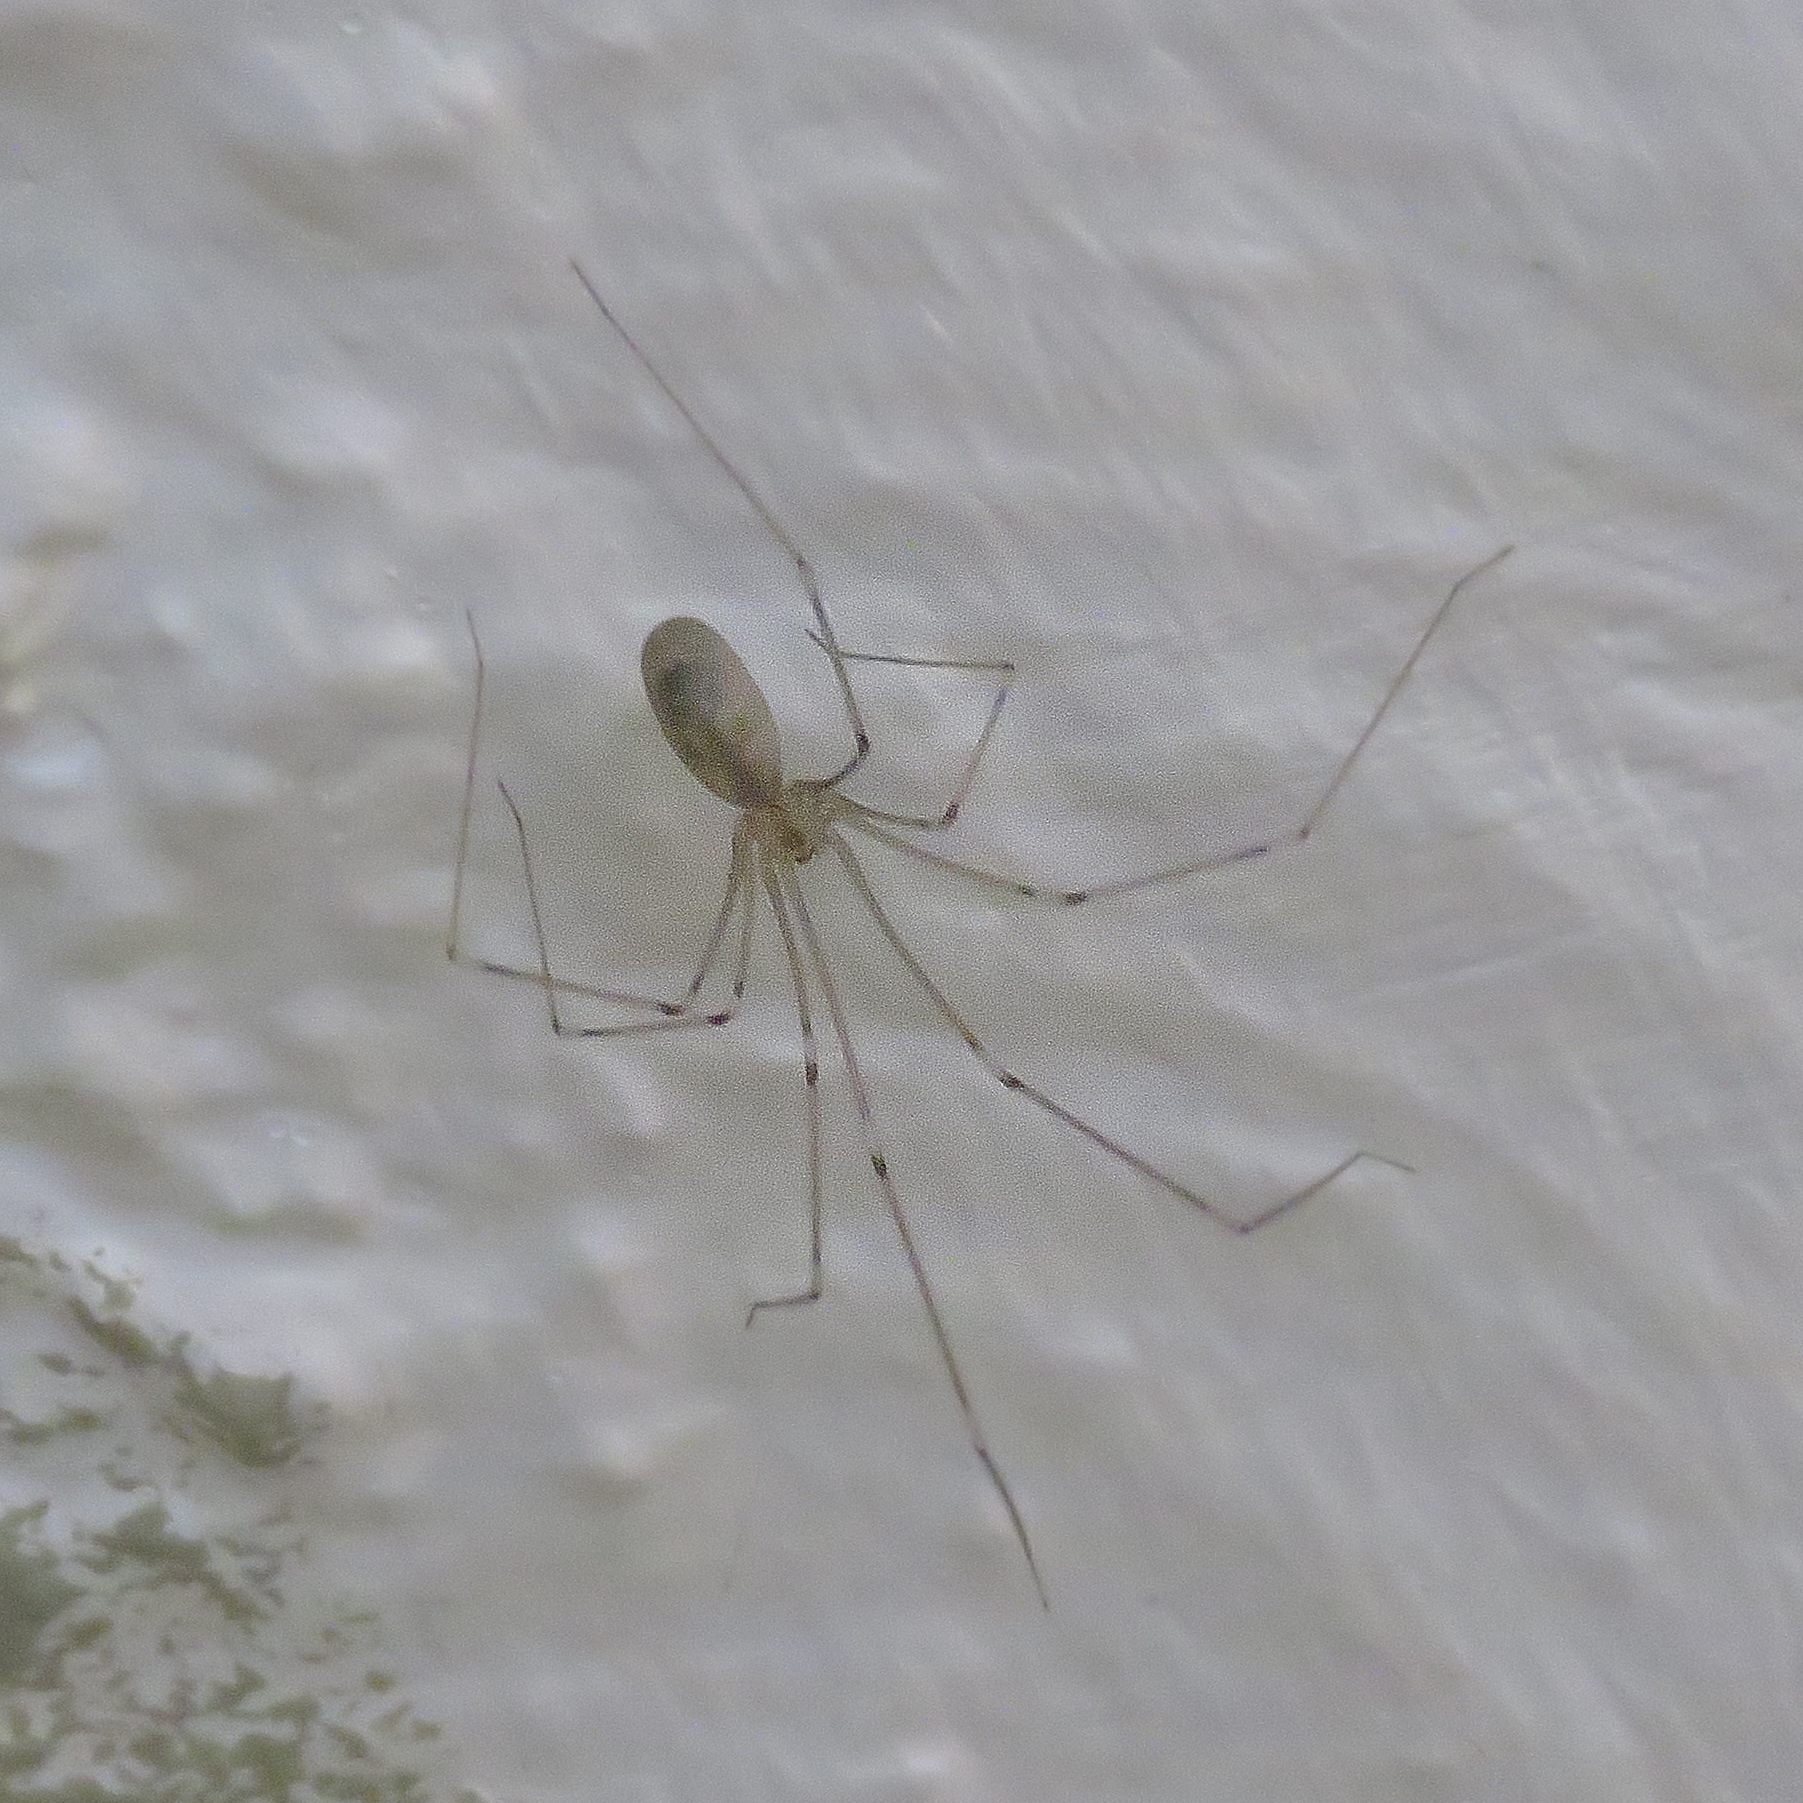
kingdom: Animalia
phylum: Arthropoda
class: Arachnida
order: Araneae
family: Pholcidae
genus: Pholcus
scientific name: Pholcus phalangioides
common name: Longbodied cellar spider
